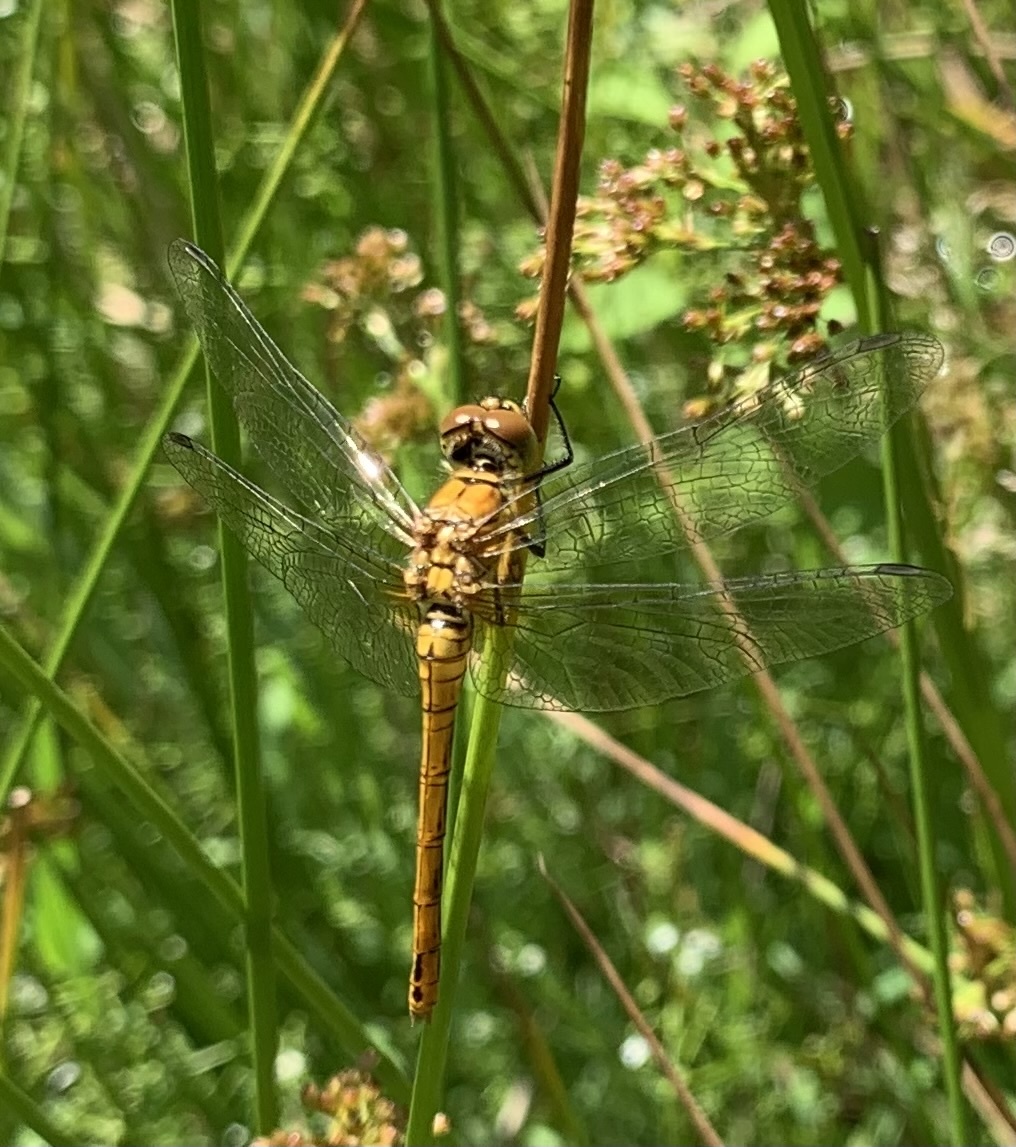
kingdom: Animalia
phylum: Arthropoda
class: Insecta
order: Odonata
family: Libellulidae
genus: Sympetrum
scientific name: Sympetrum sanguineum
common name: Ruddy darter
